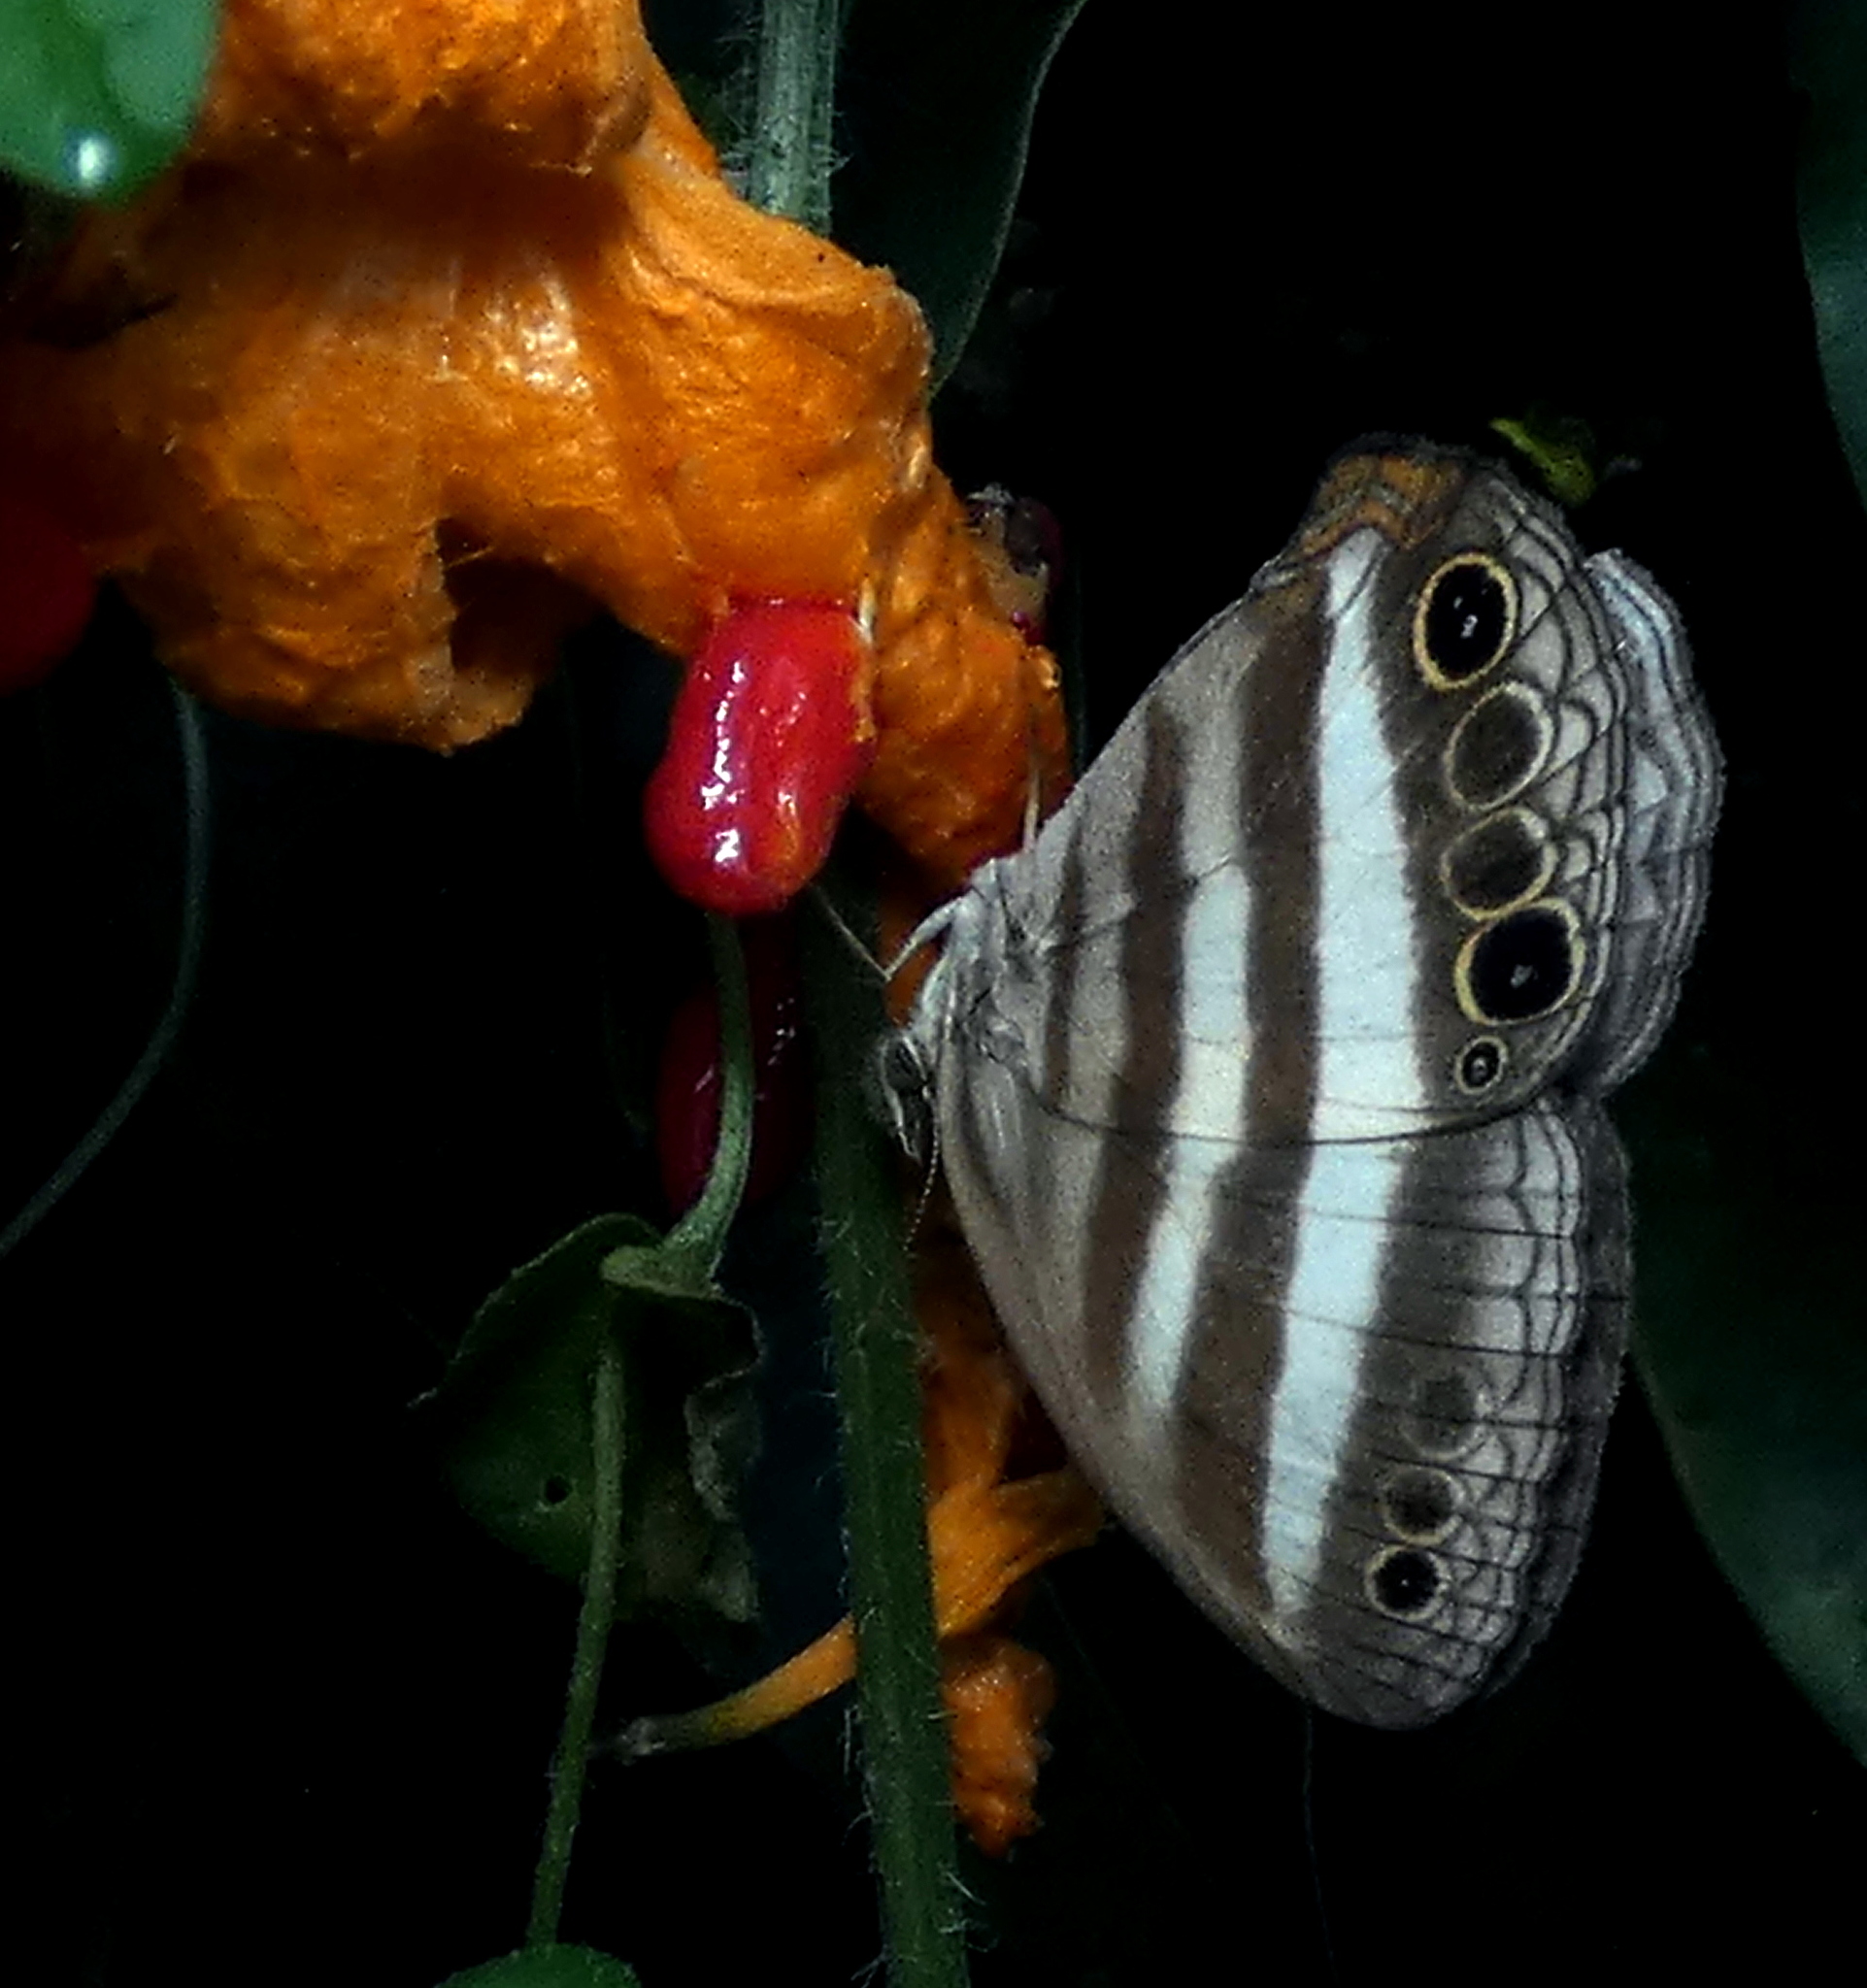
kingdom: Animalia
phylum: Arthropoda
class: Insecta
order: Lepidoptera
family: Nymphalidae
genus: Pareuptychia
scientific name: Pareuptychia hesione
